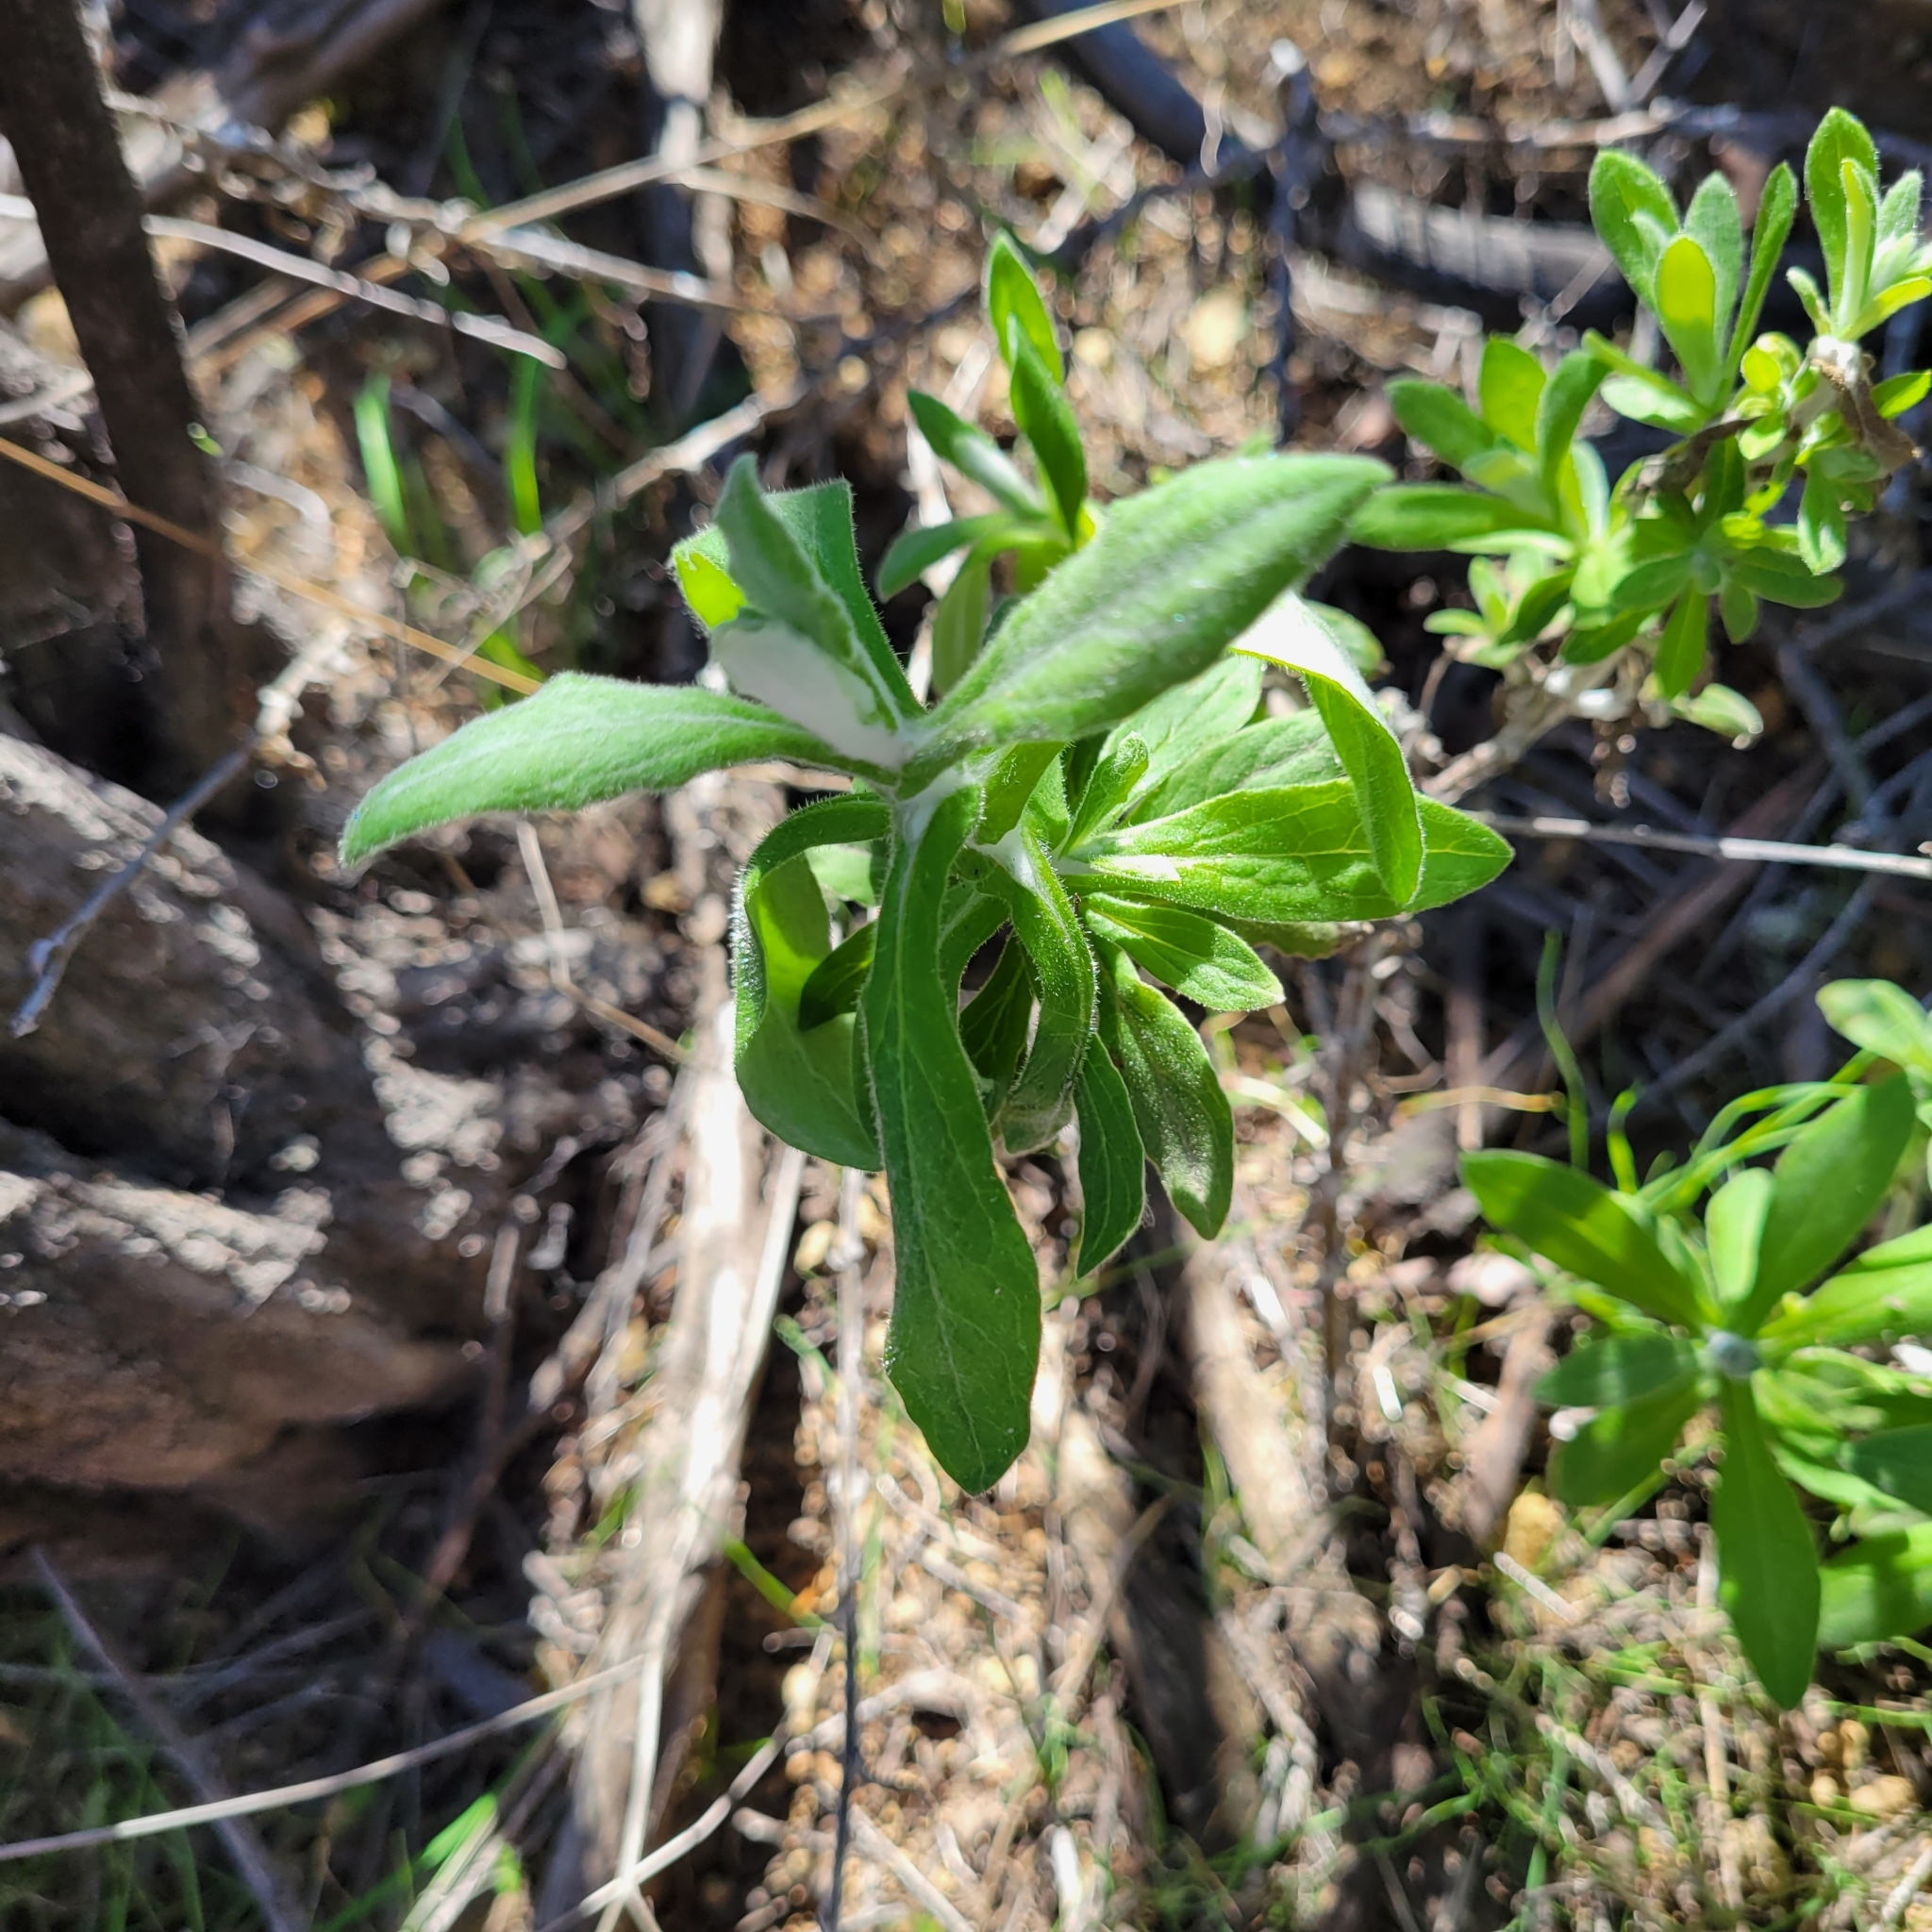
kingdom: Plantae
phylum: Tracheophyta
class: Magnoliopsida
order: Asterales
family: Asteraceae
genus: Pseudognaphalium
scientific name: Pseudognaphalium biolettii
